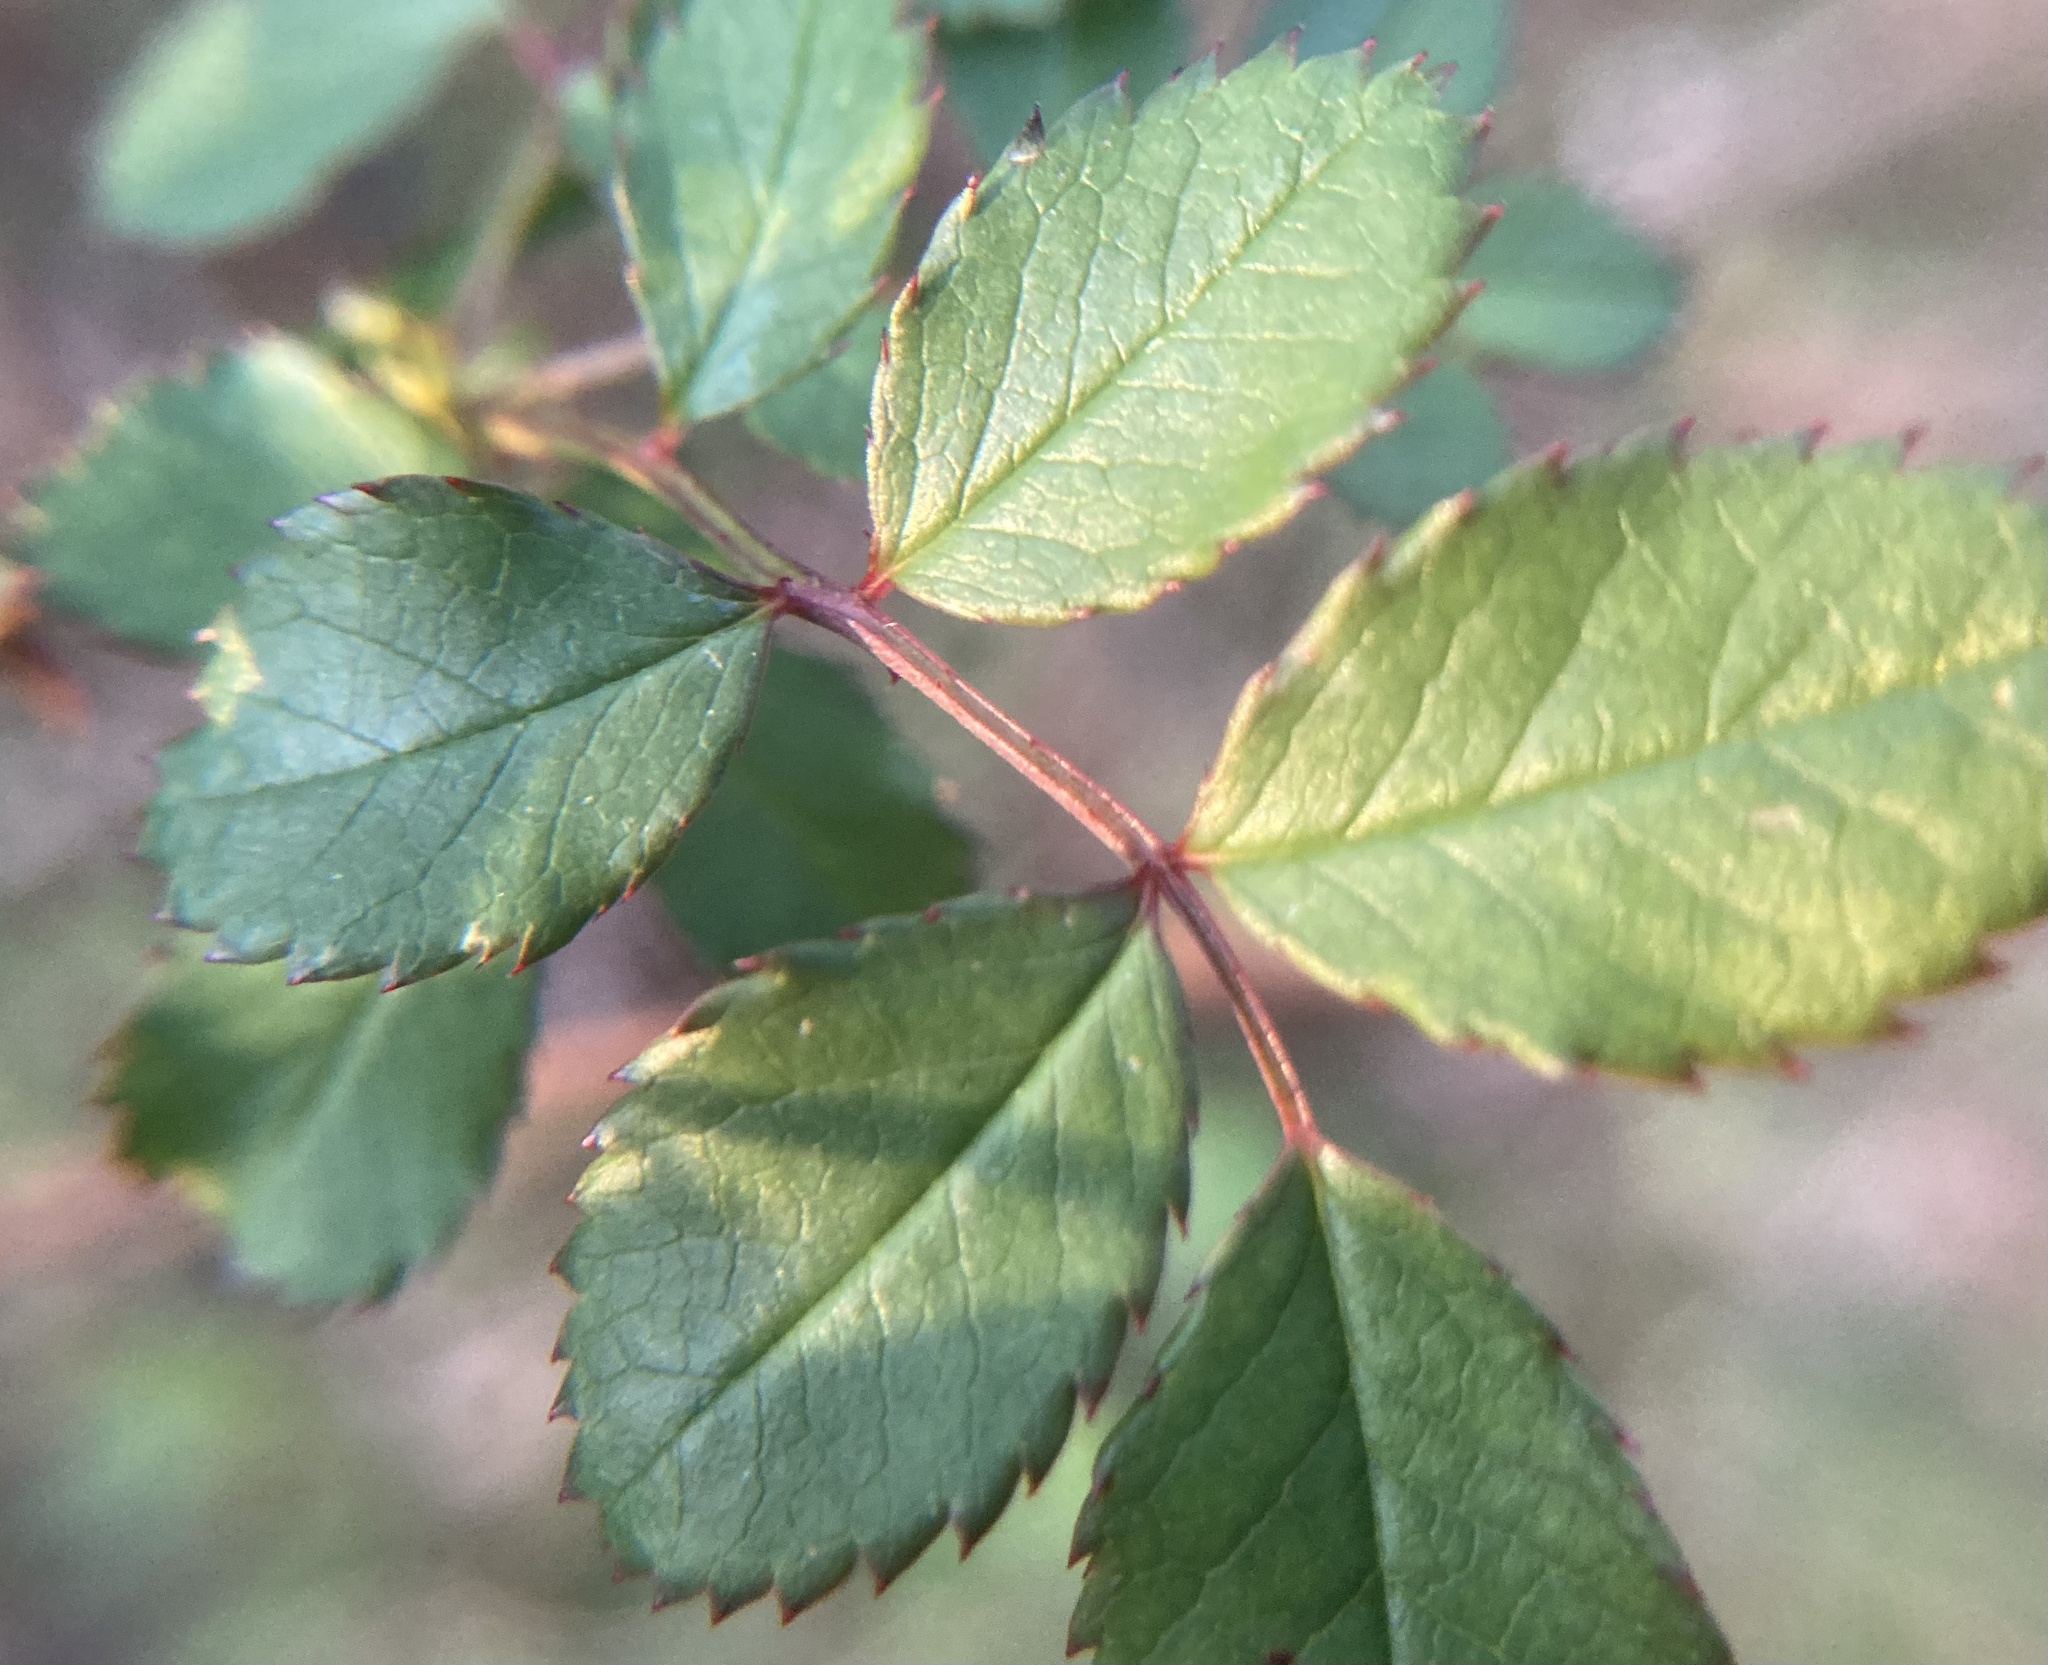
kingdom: Plantae
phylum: Tracheophyta
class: Magnoliopsida
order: Rosales
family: Rosaceae
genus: Rosa
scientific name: Rosa multiflora
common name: Multiflora rose
